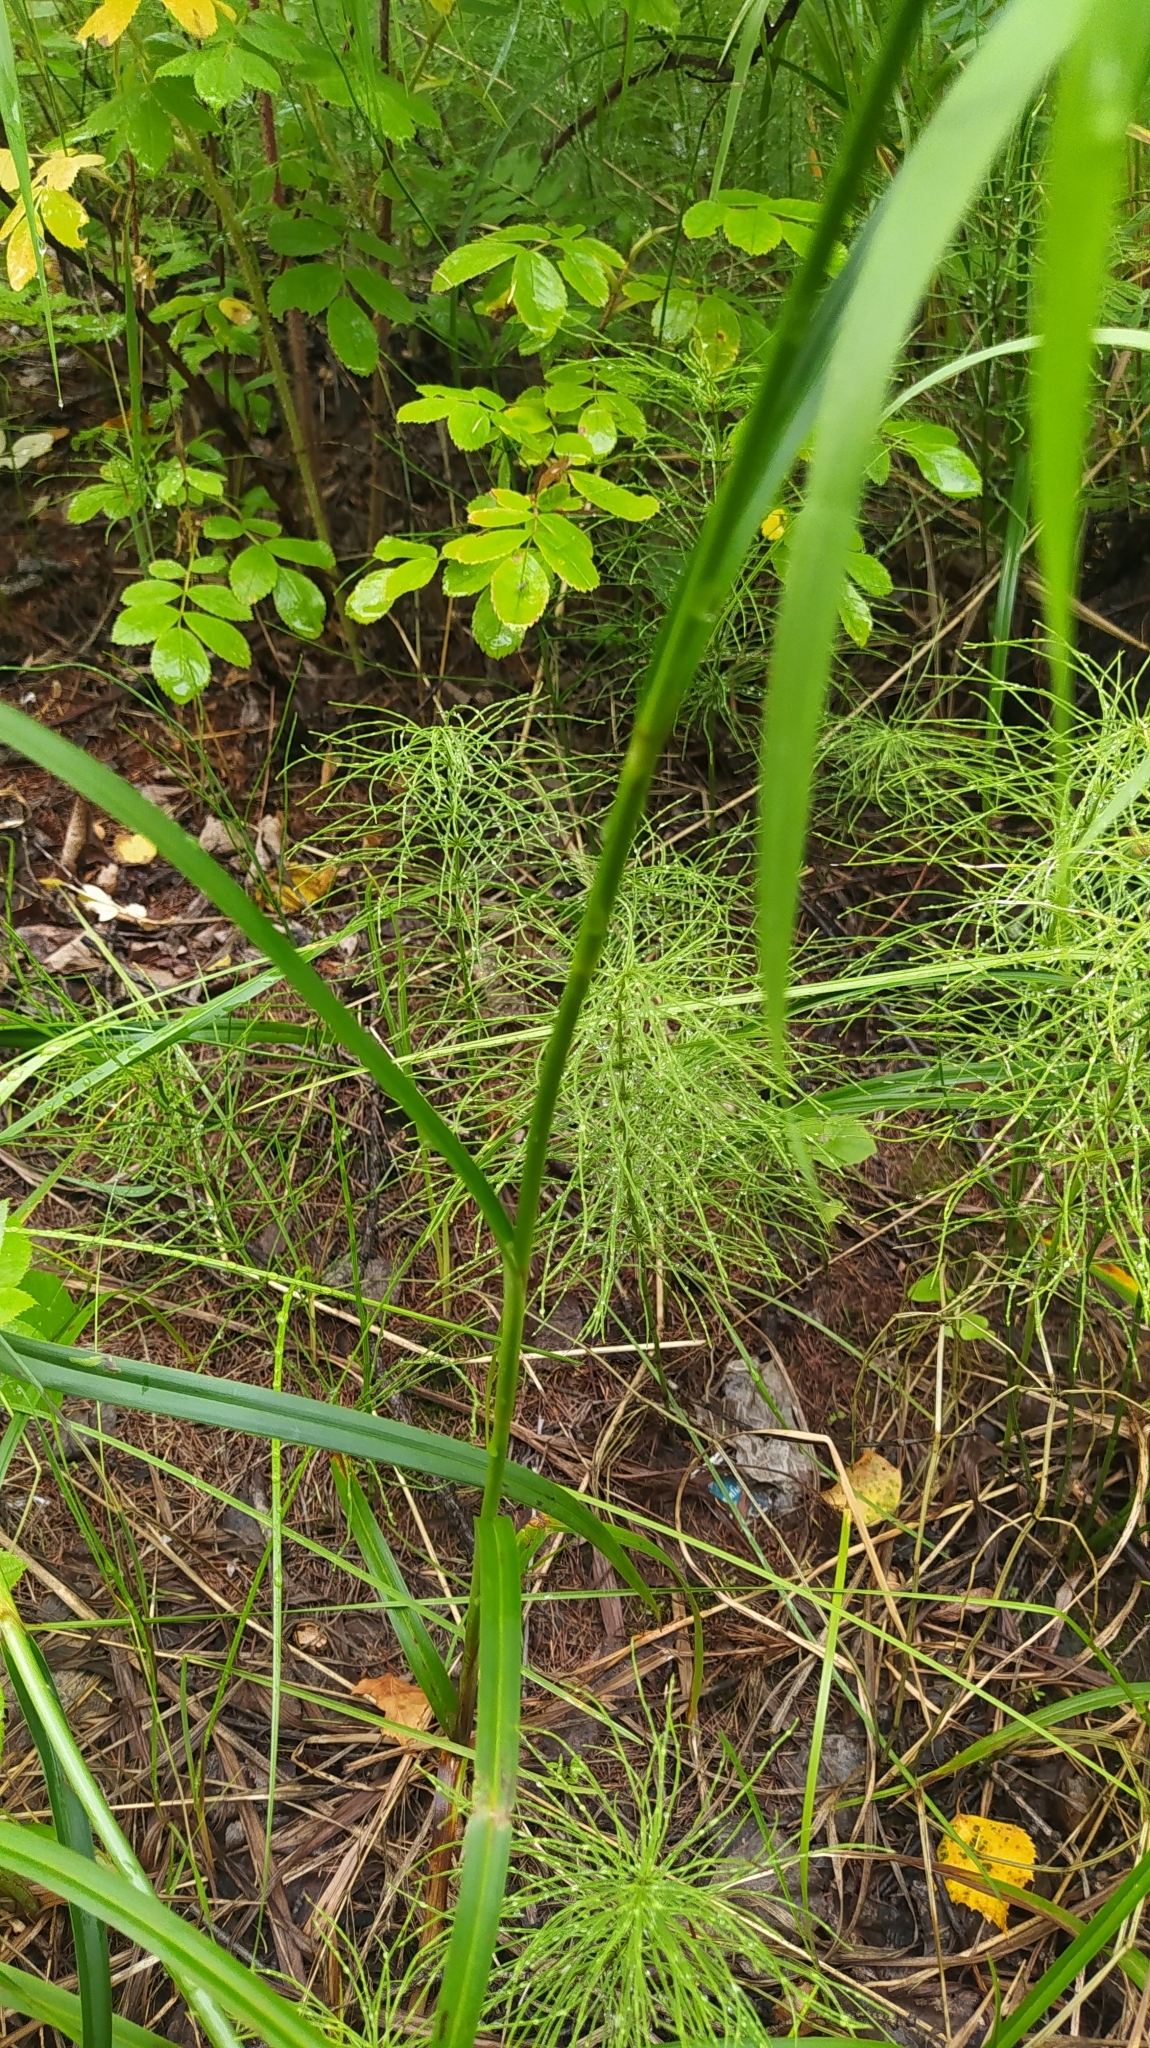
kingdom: Plantae
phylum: Tracheophyta
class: Liliopsida
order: Poales
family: Cyperaceae
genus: Scirpus
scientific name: Scirpus radicans
